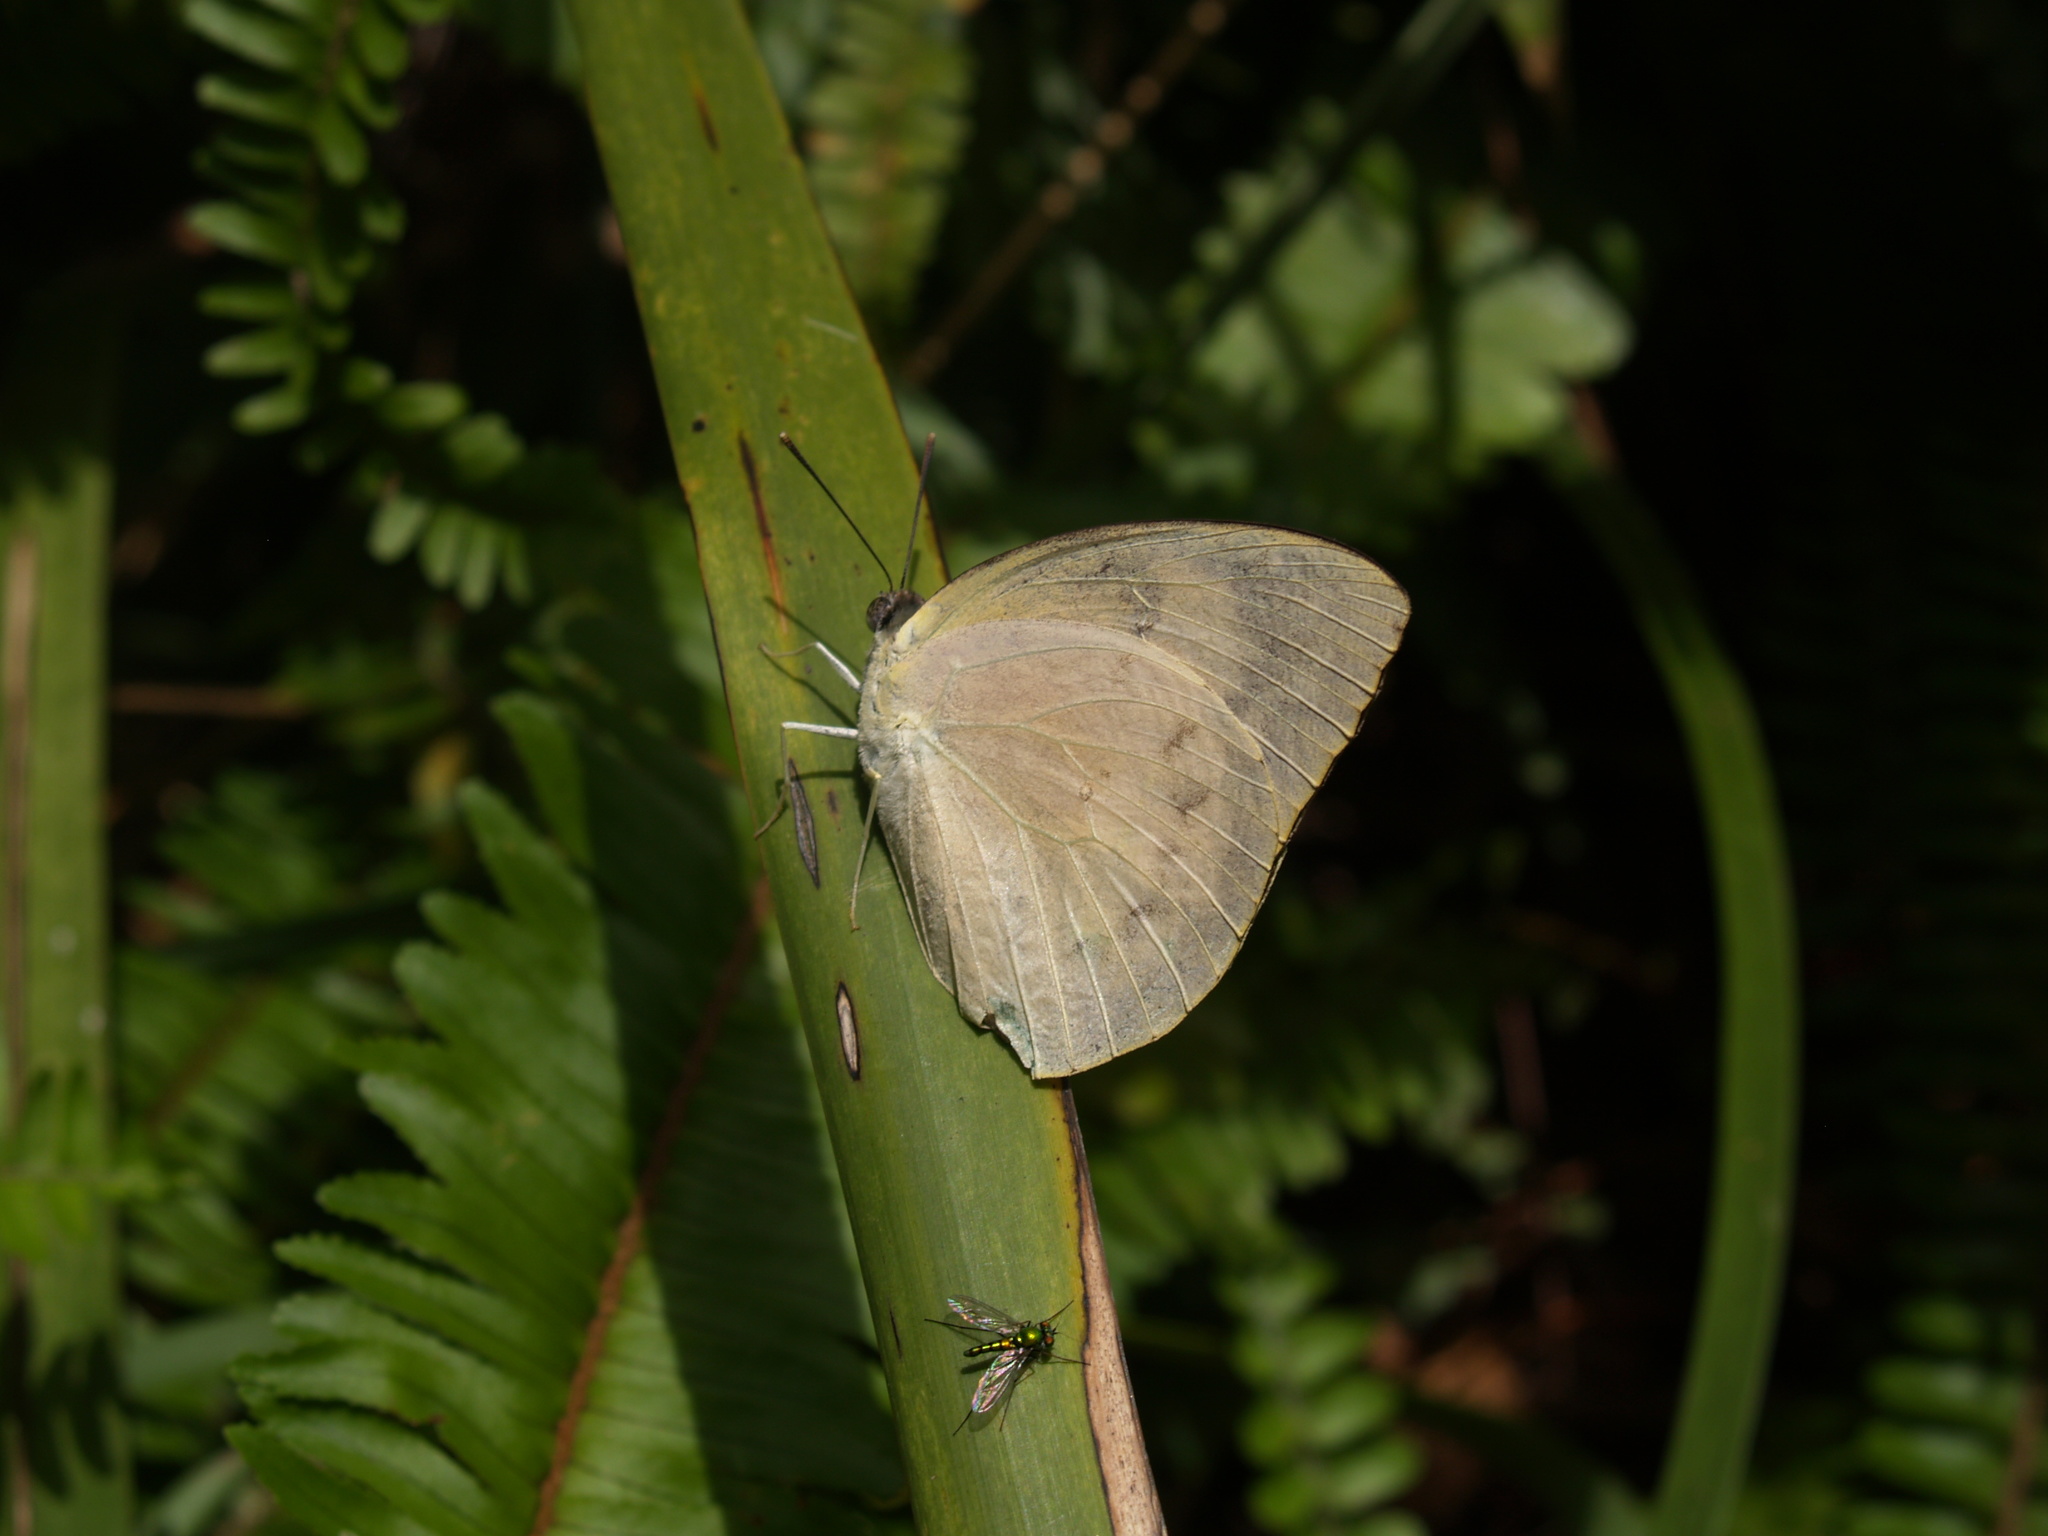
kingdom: Animalia
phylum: Arthropoda
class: Insecta
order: Lepidoptera
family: Pieridae
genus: Catopsilia
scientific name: Catopsilia pomona
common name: Common emigrant
